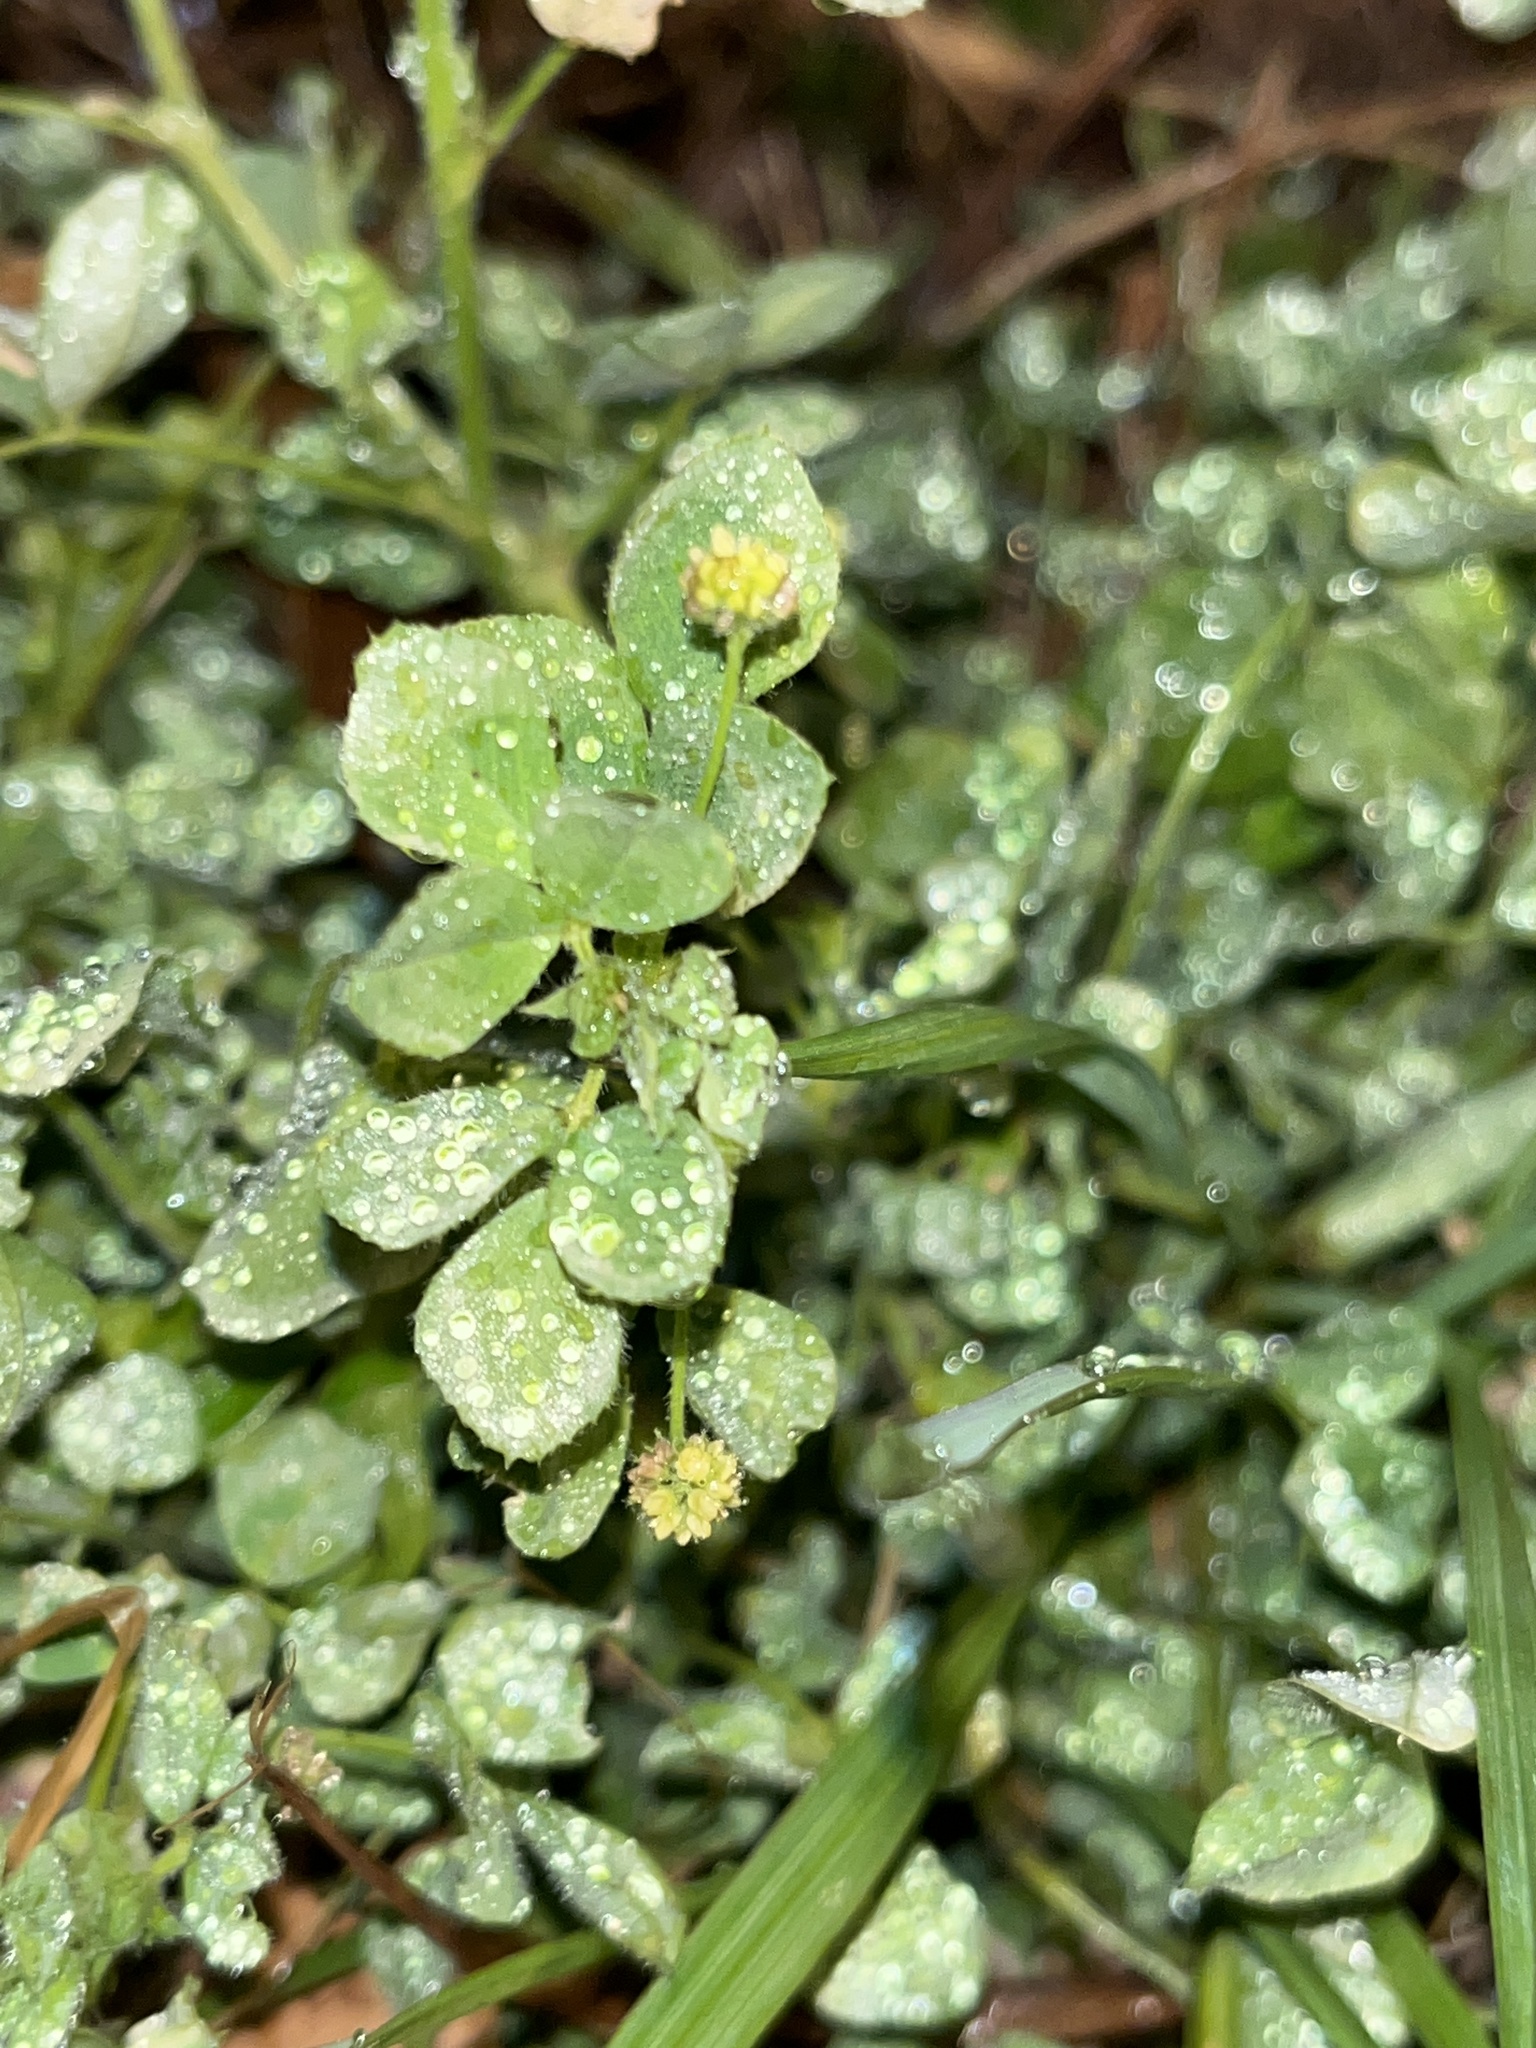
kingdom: Plantae
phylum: Tracheophyta
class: Magnoliopsida
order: Fabales
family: Fabaceae
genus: Medicago
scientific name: Medicago lupulina
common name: Black medick
